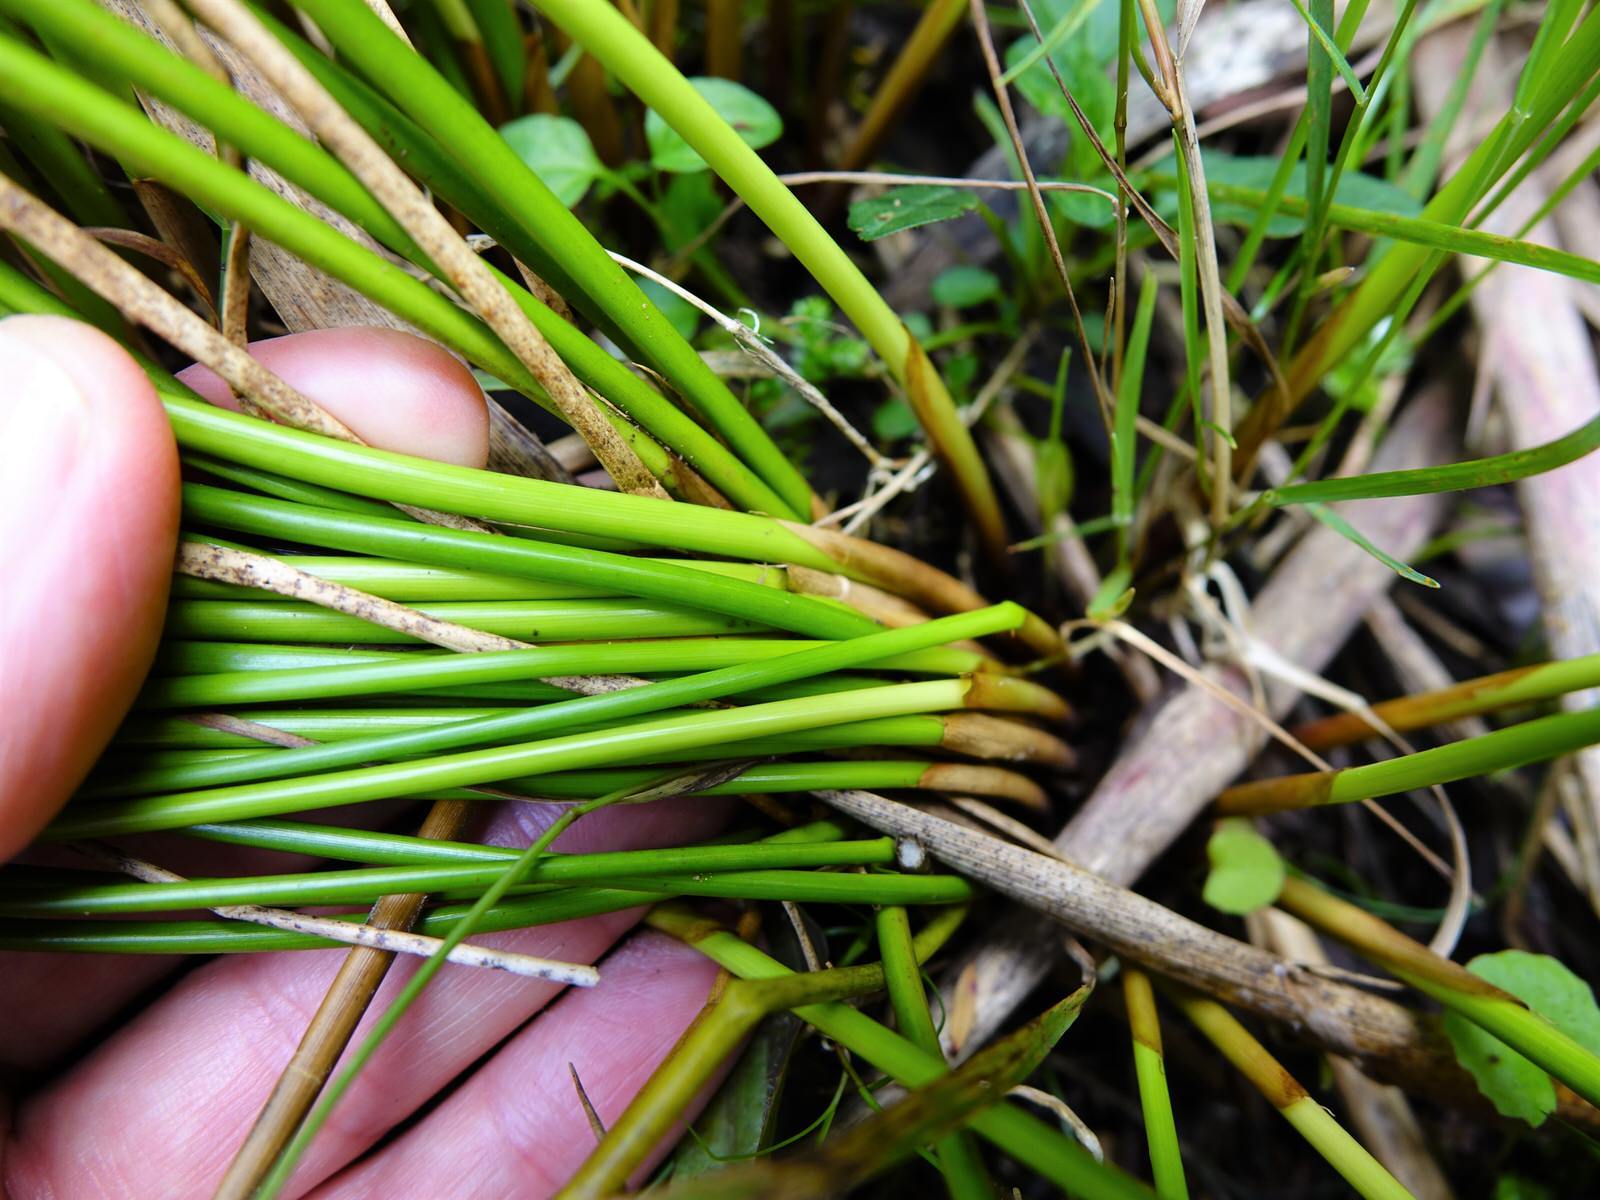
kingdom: Plantae
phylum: Tracheophyta
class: Liliopsida
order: Poales
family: Juncaceae
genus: Juncus
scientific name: Juncus edgariae
